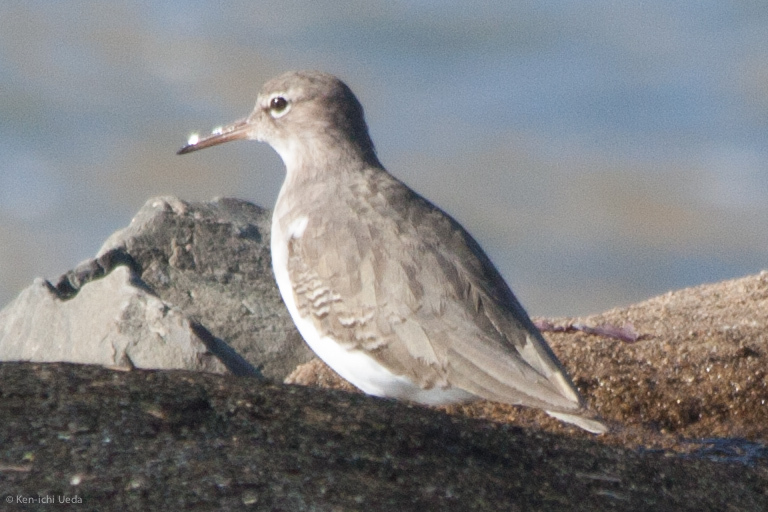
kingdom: Animalia
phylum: Chordata
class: Aves
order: Charadriiformes
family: Scolopacidae
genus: Actitis
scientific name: Actitis macularius
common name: Spotted sandpiper
